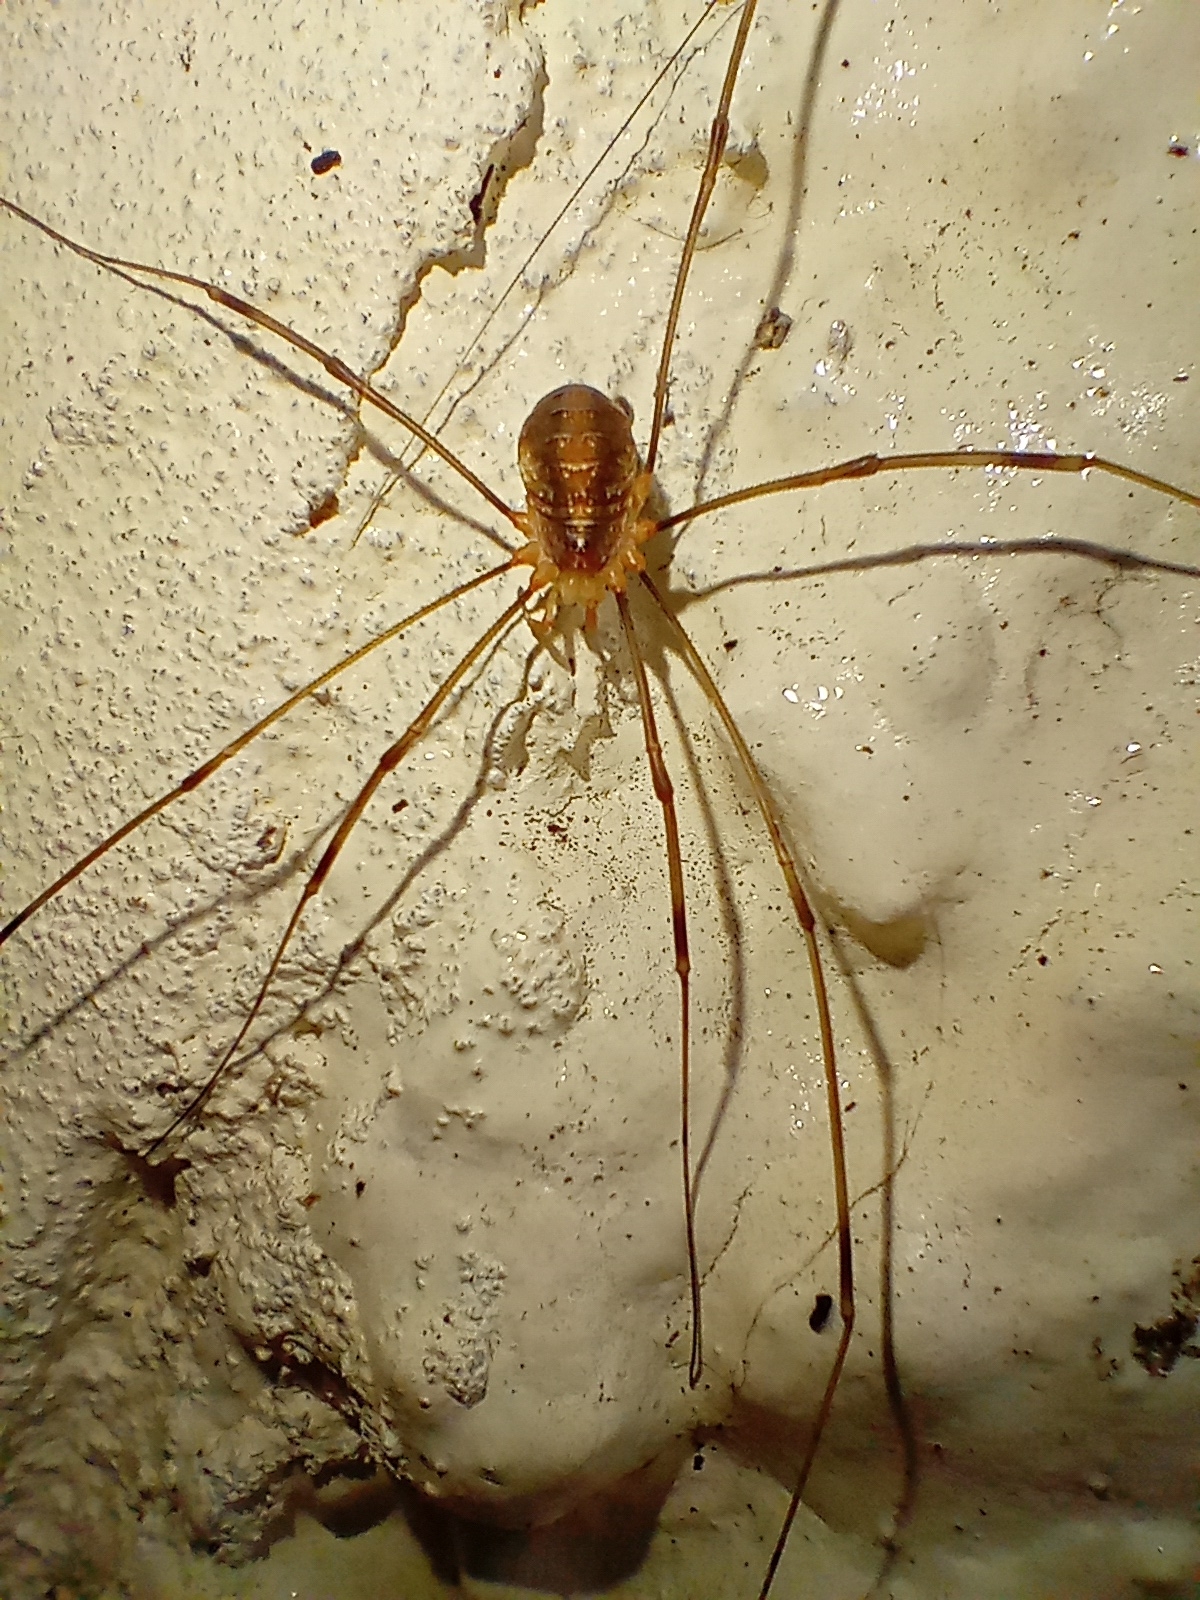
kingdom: Animalia
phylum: Arthropoda
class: Arachnida
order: Opiliones
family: Phalangiidae
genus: Opilio
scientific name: Opilio canestrinii
